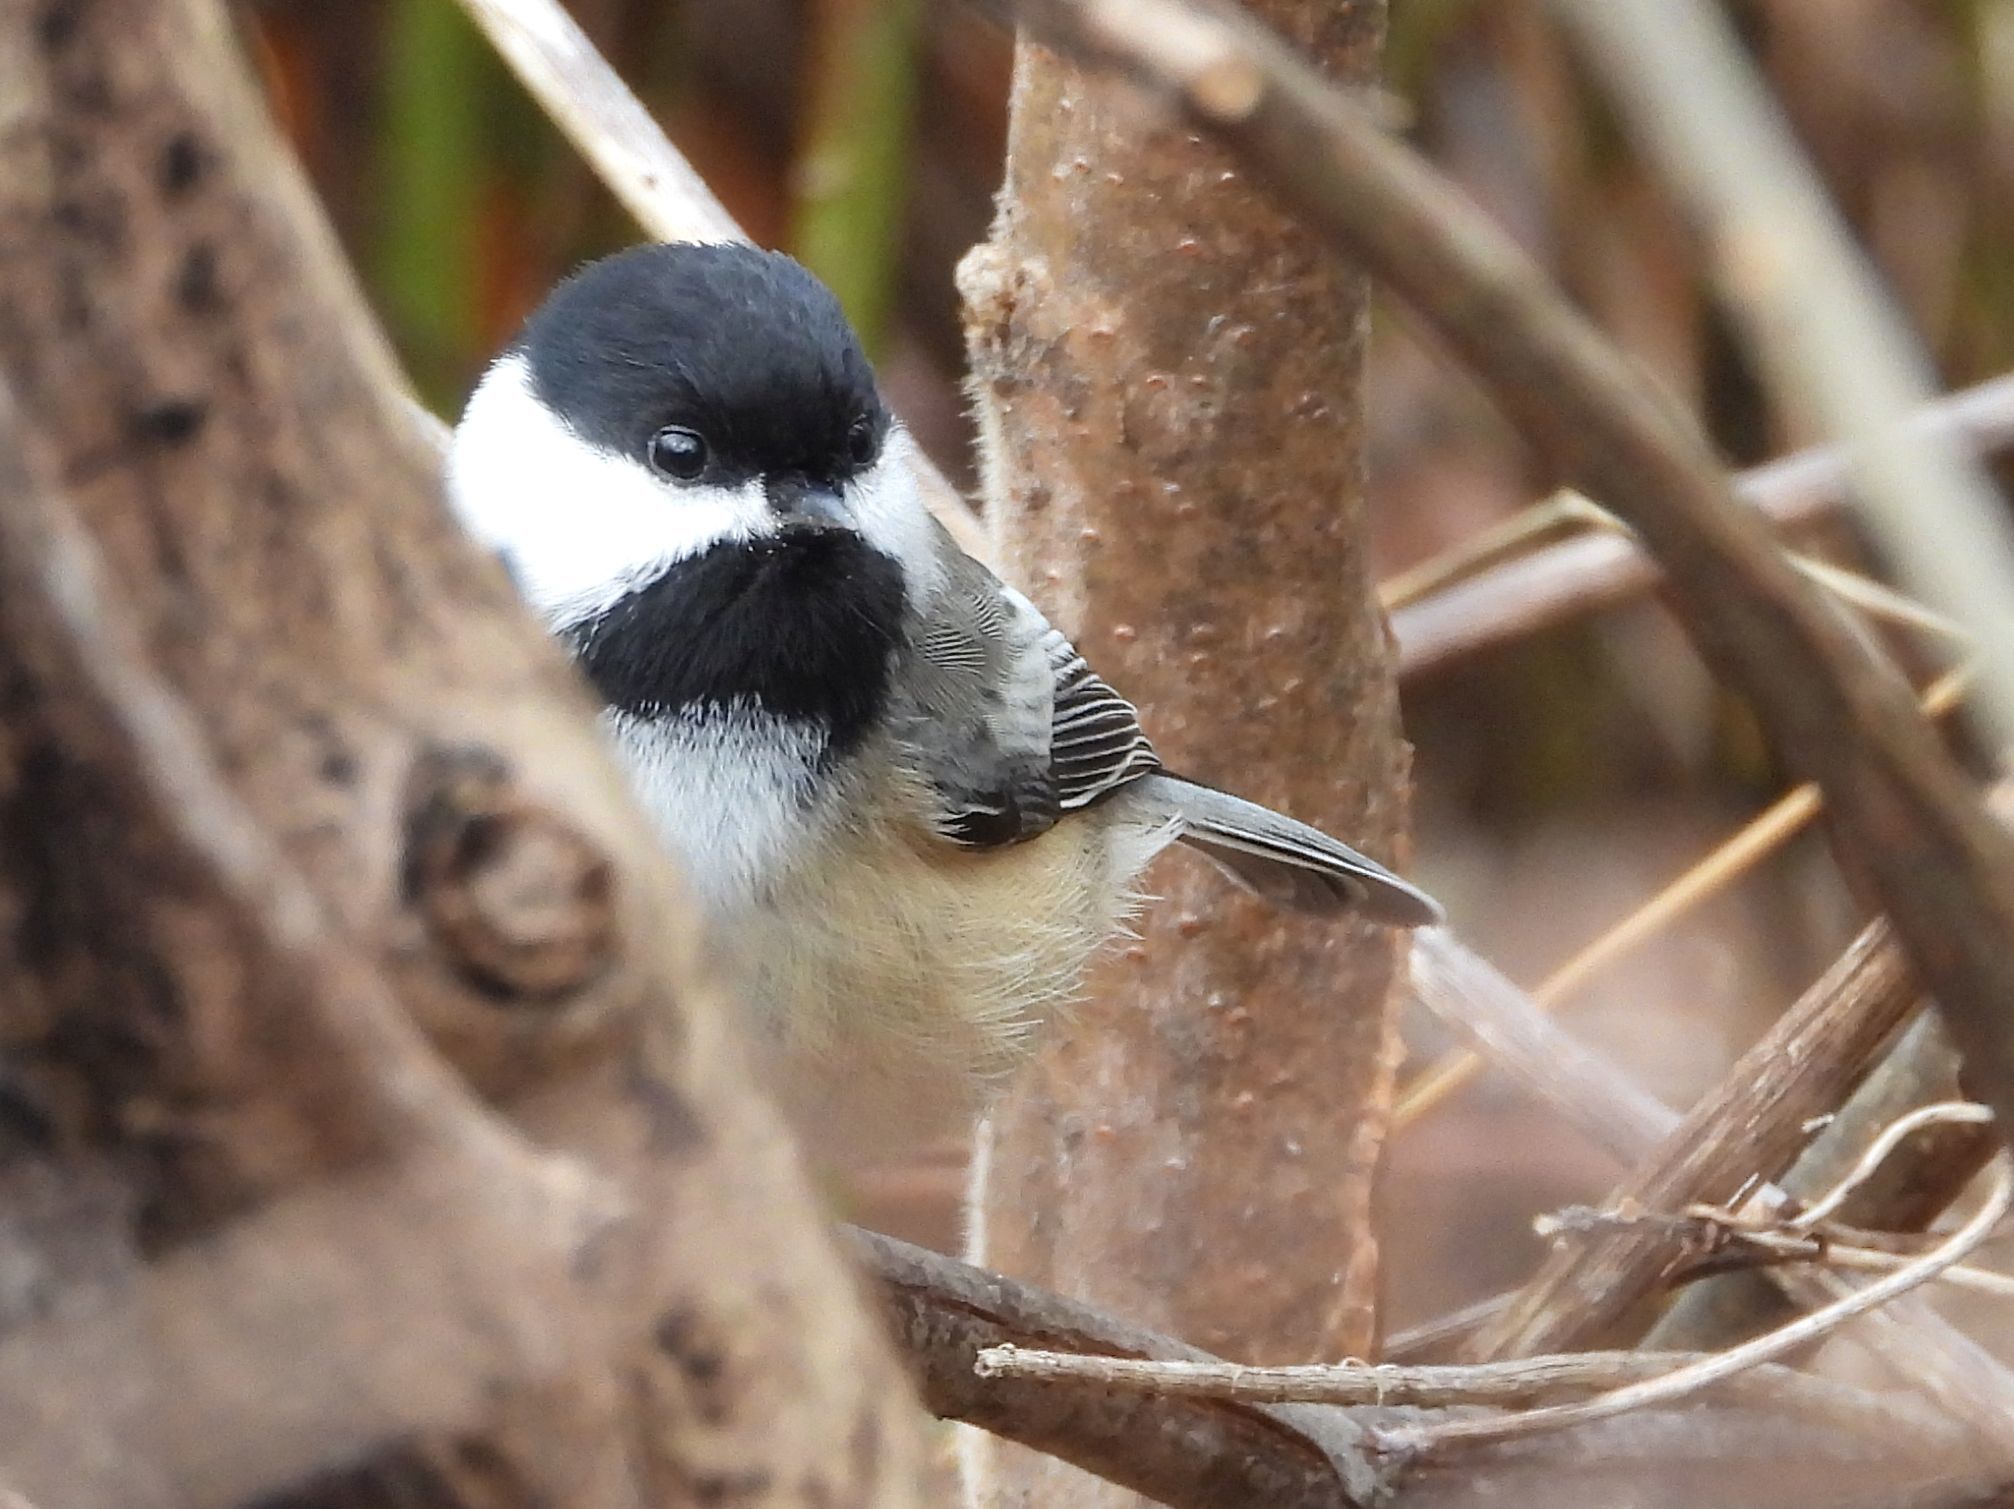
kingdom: Animalia
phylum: Chordata
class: Aves
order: Passeriformes
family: Paridae
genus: Poecile
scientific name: Poecile atricapillus
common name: Black-capped chickadee
